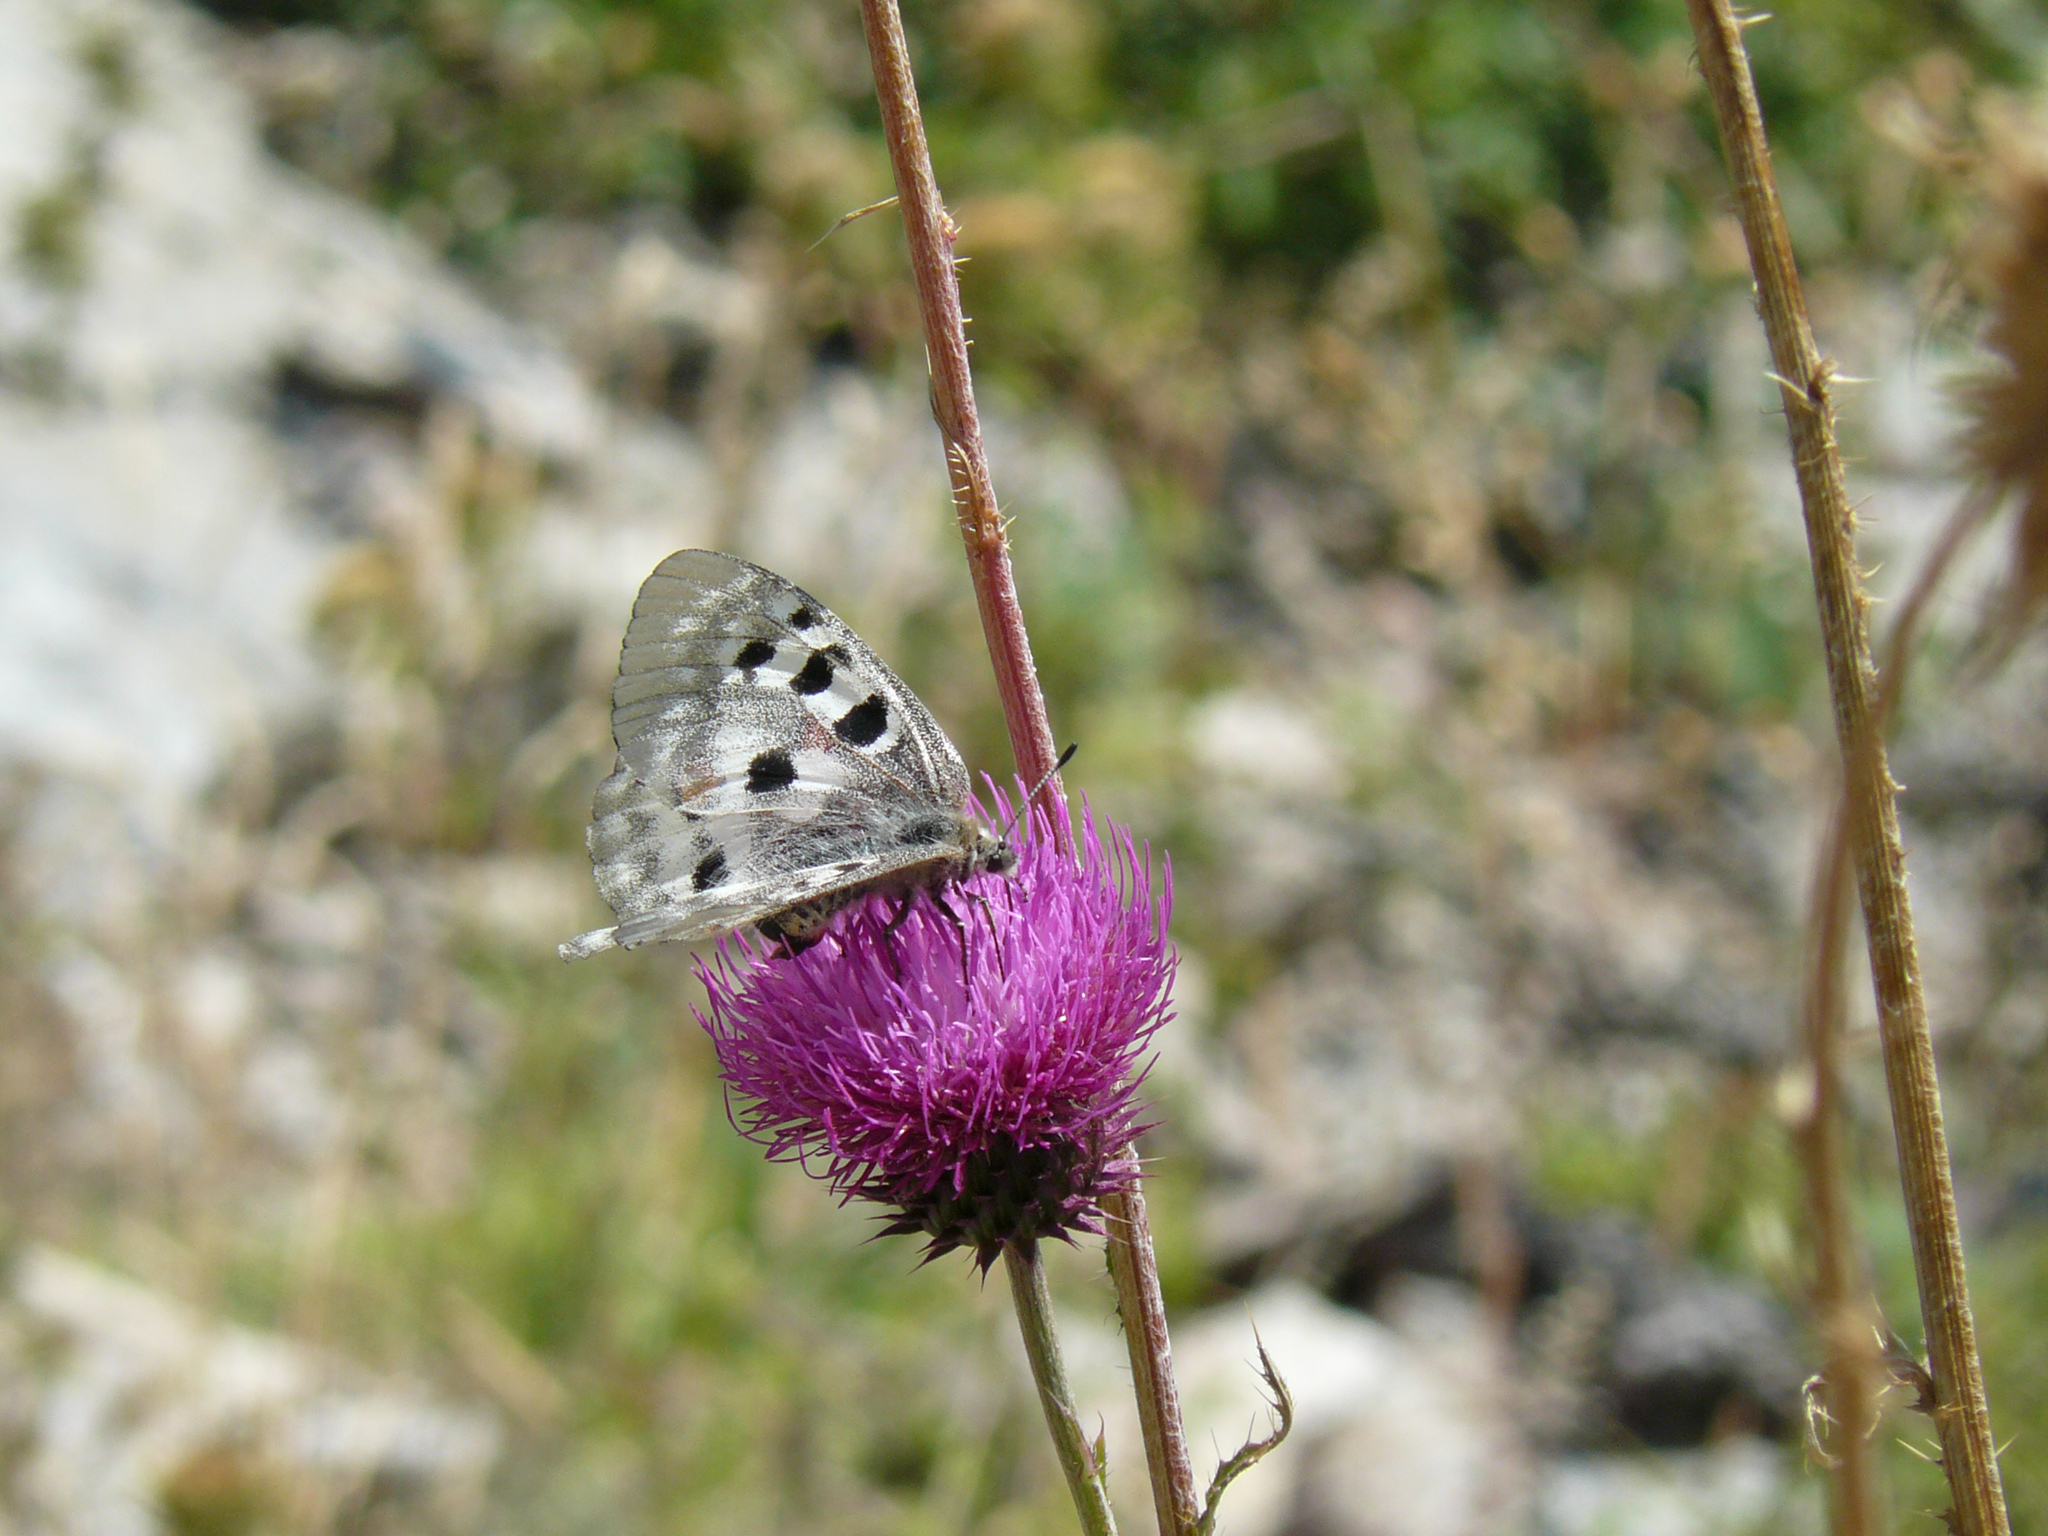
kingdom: Animalia
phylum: Arthropoda
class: Insecta
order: Lepidoptera
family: Papilionidae
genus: Parnassius
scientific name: Parnassius apollo
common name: Apollo
